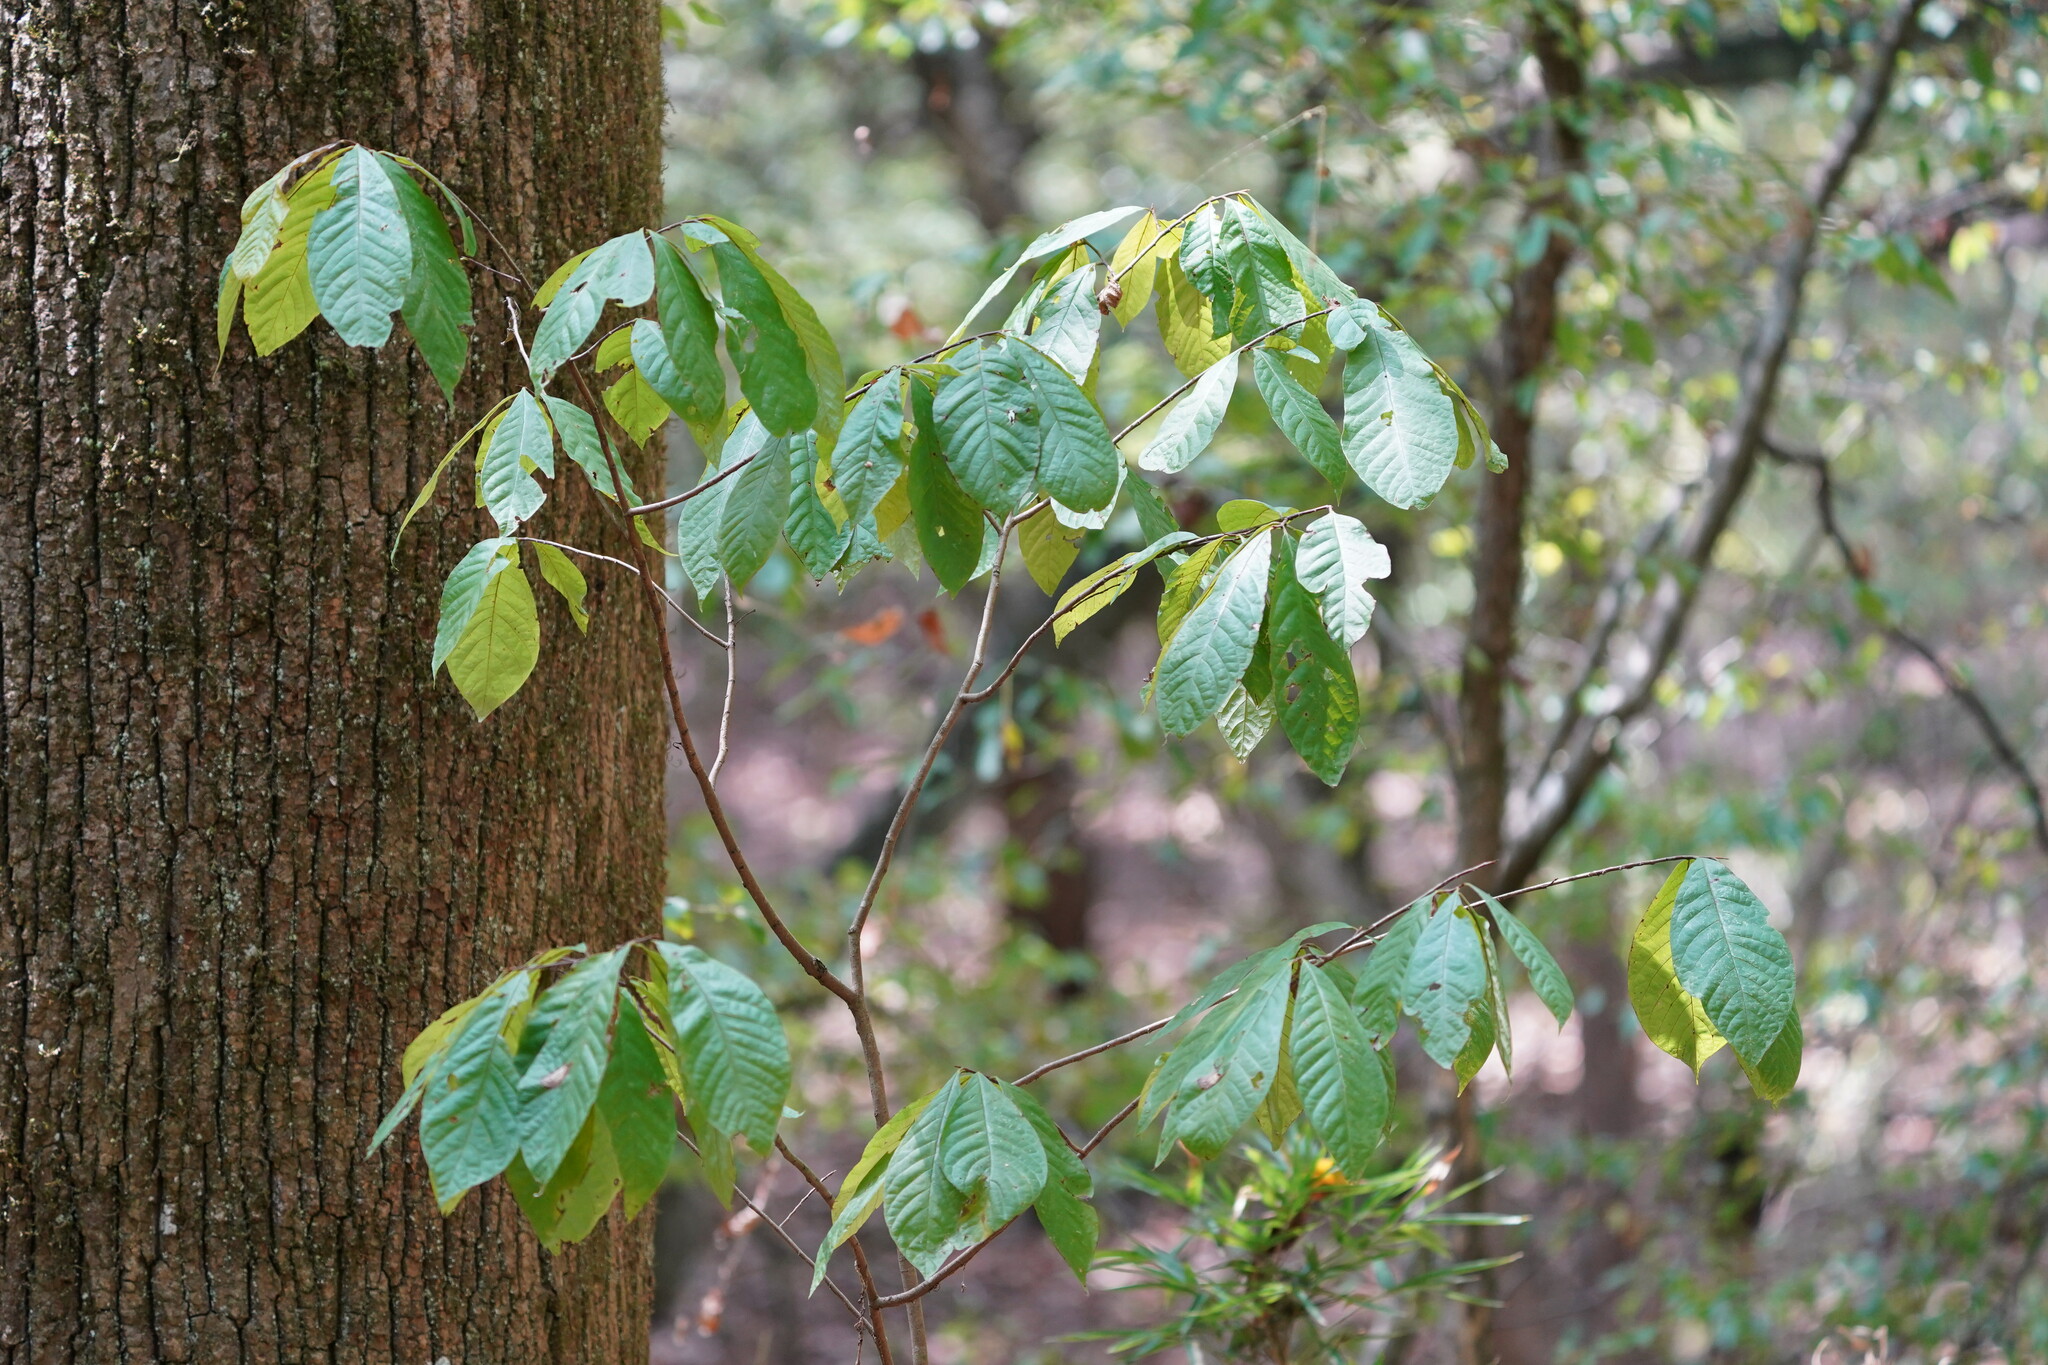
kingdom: Plantae
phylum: Tracheophyta
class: Magnoliopsida
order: Magnoliales
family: Annonaceae
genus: Asimina
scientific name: Asimina triloba
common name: Dog-banana
